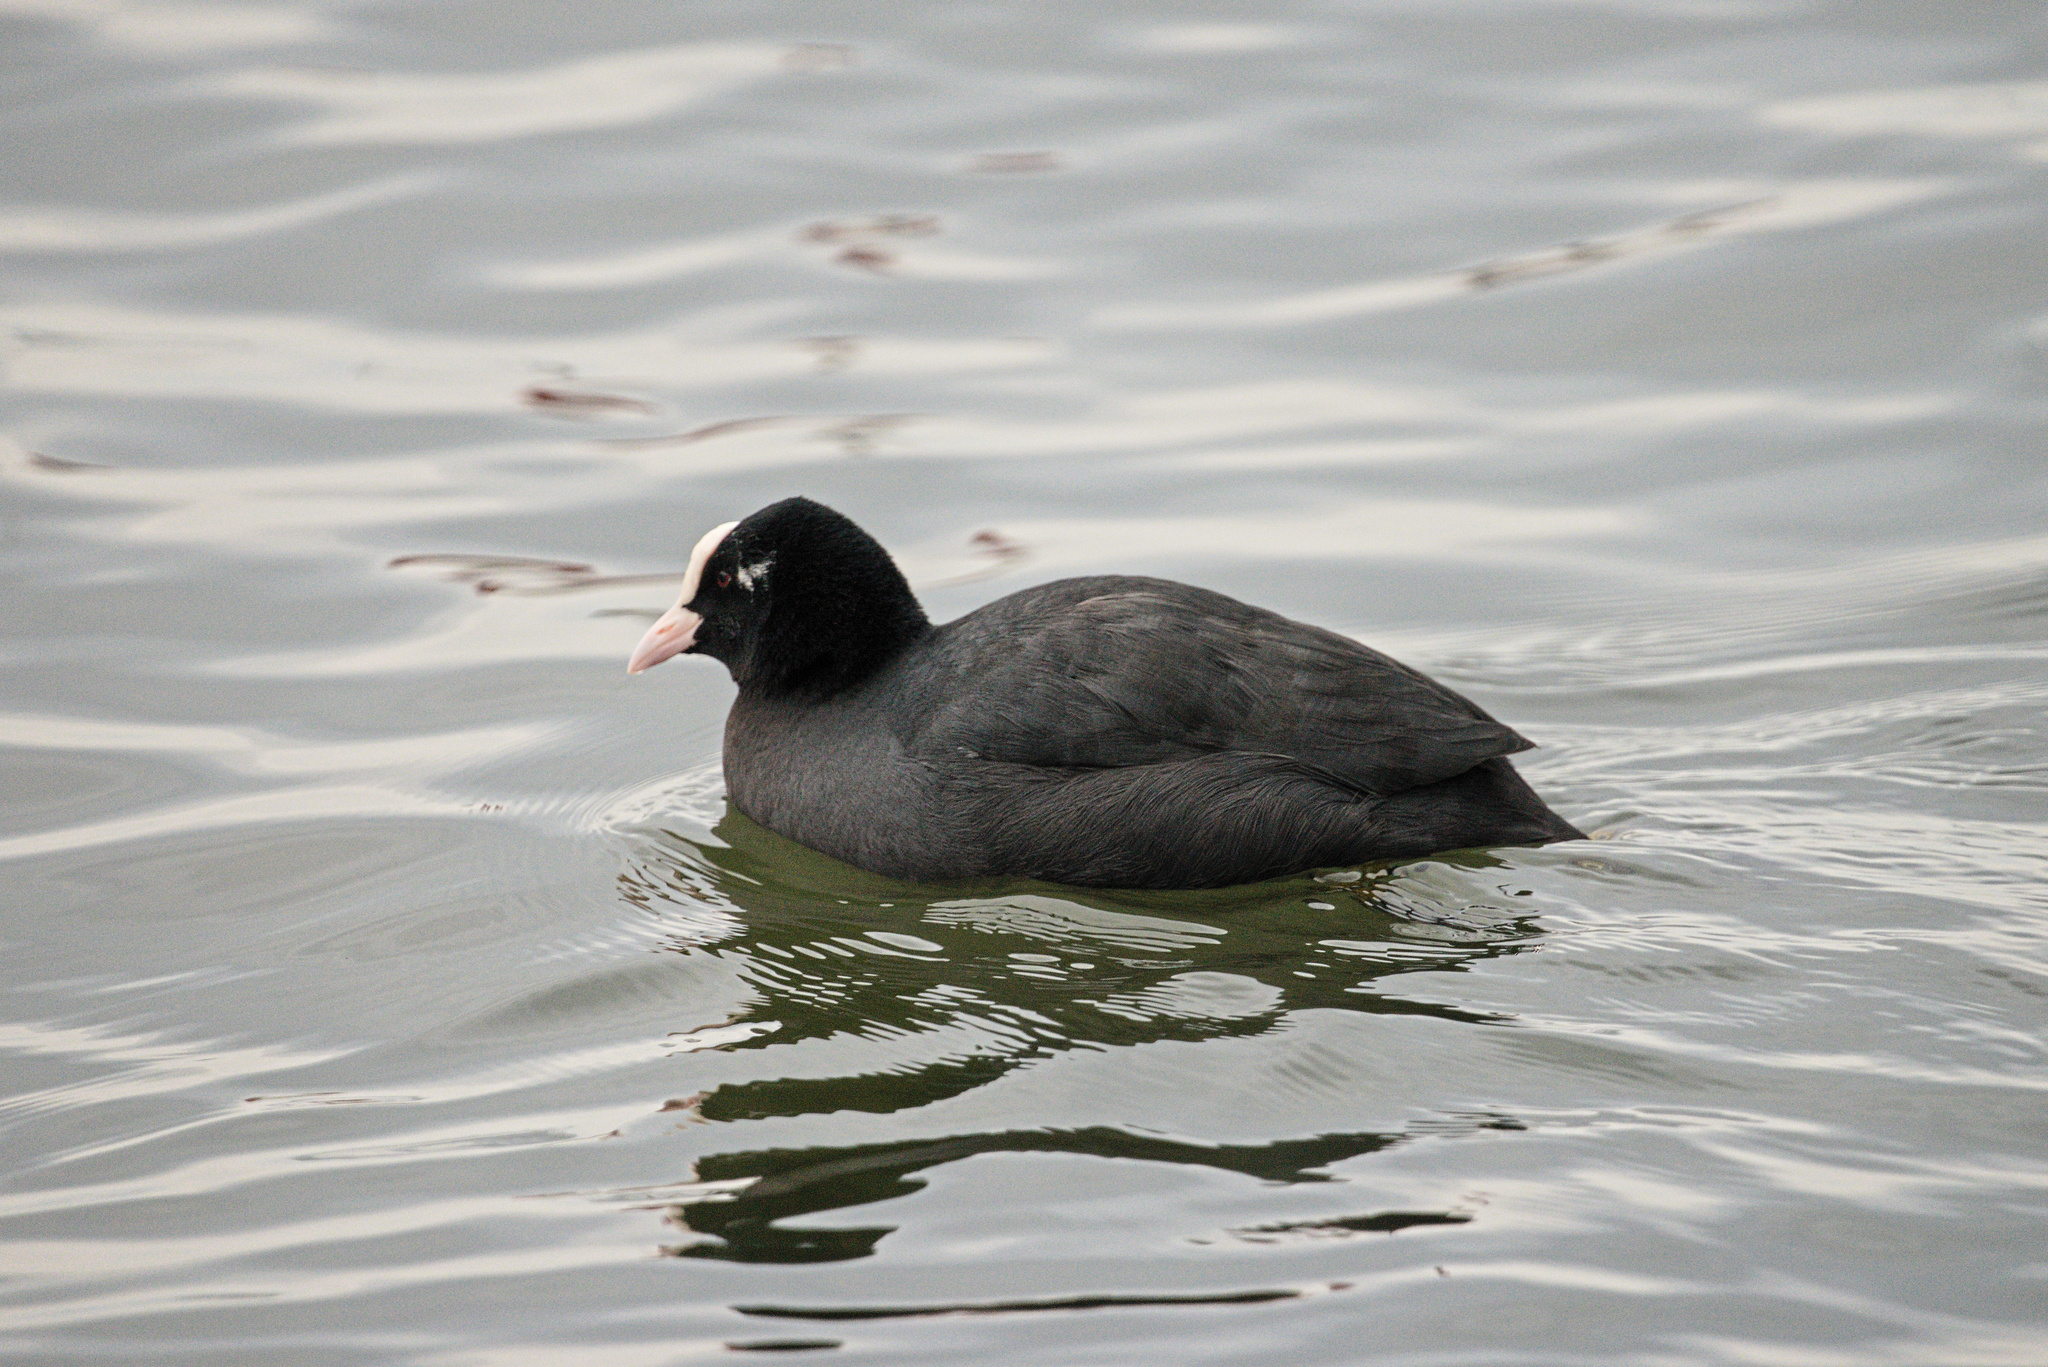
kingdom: Animalia
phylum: Chordata
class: Aves
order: Gruiformes
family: Rallidae
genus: Fulica
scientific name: Fulica atra
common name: Eurasian coot
